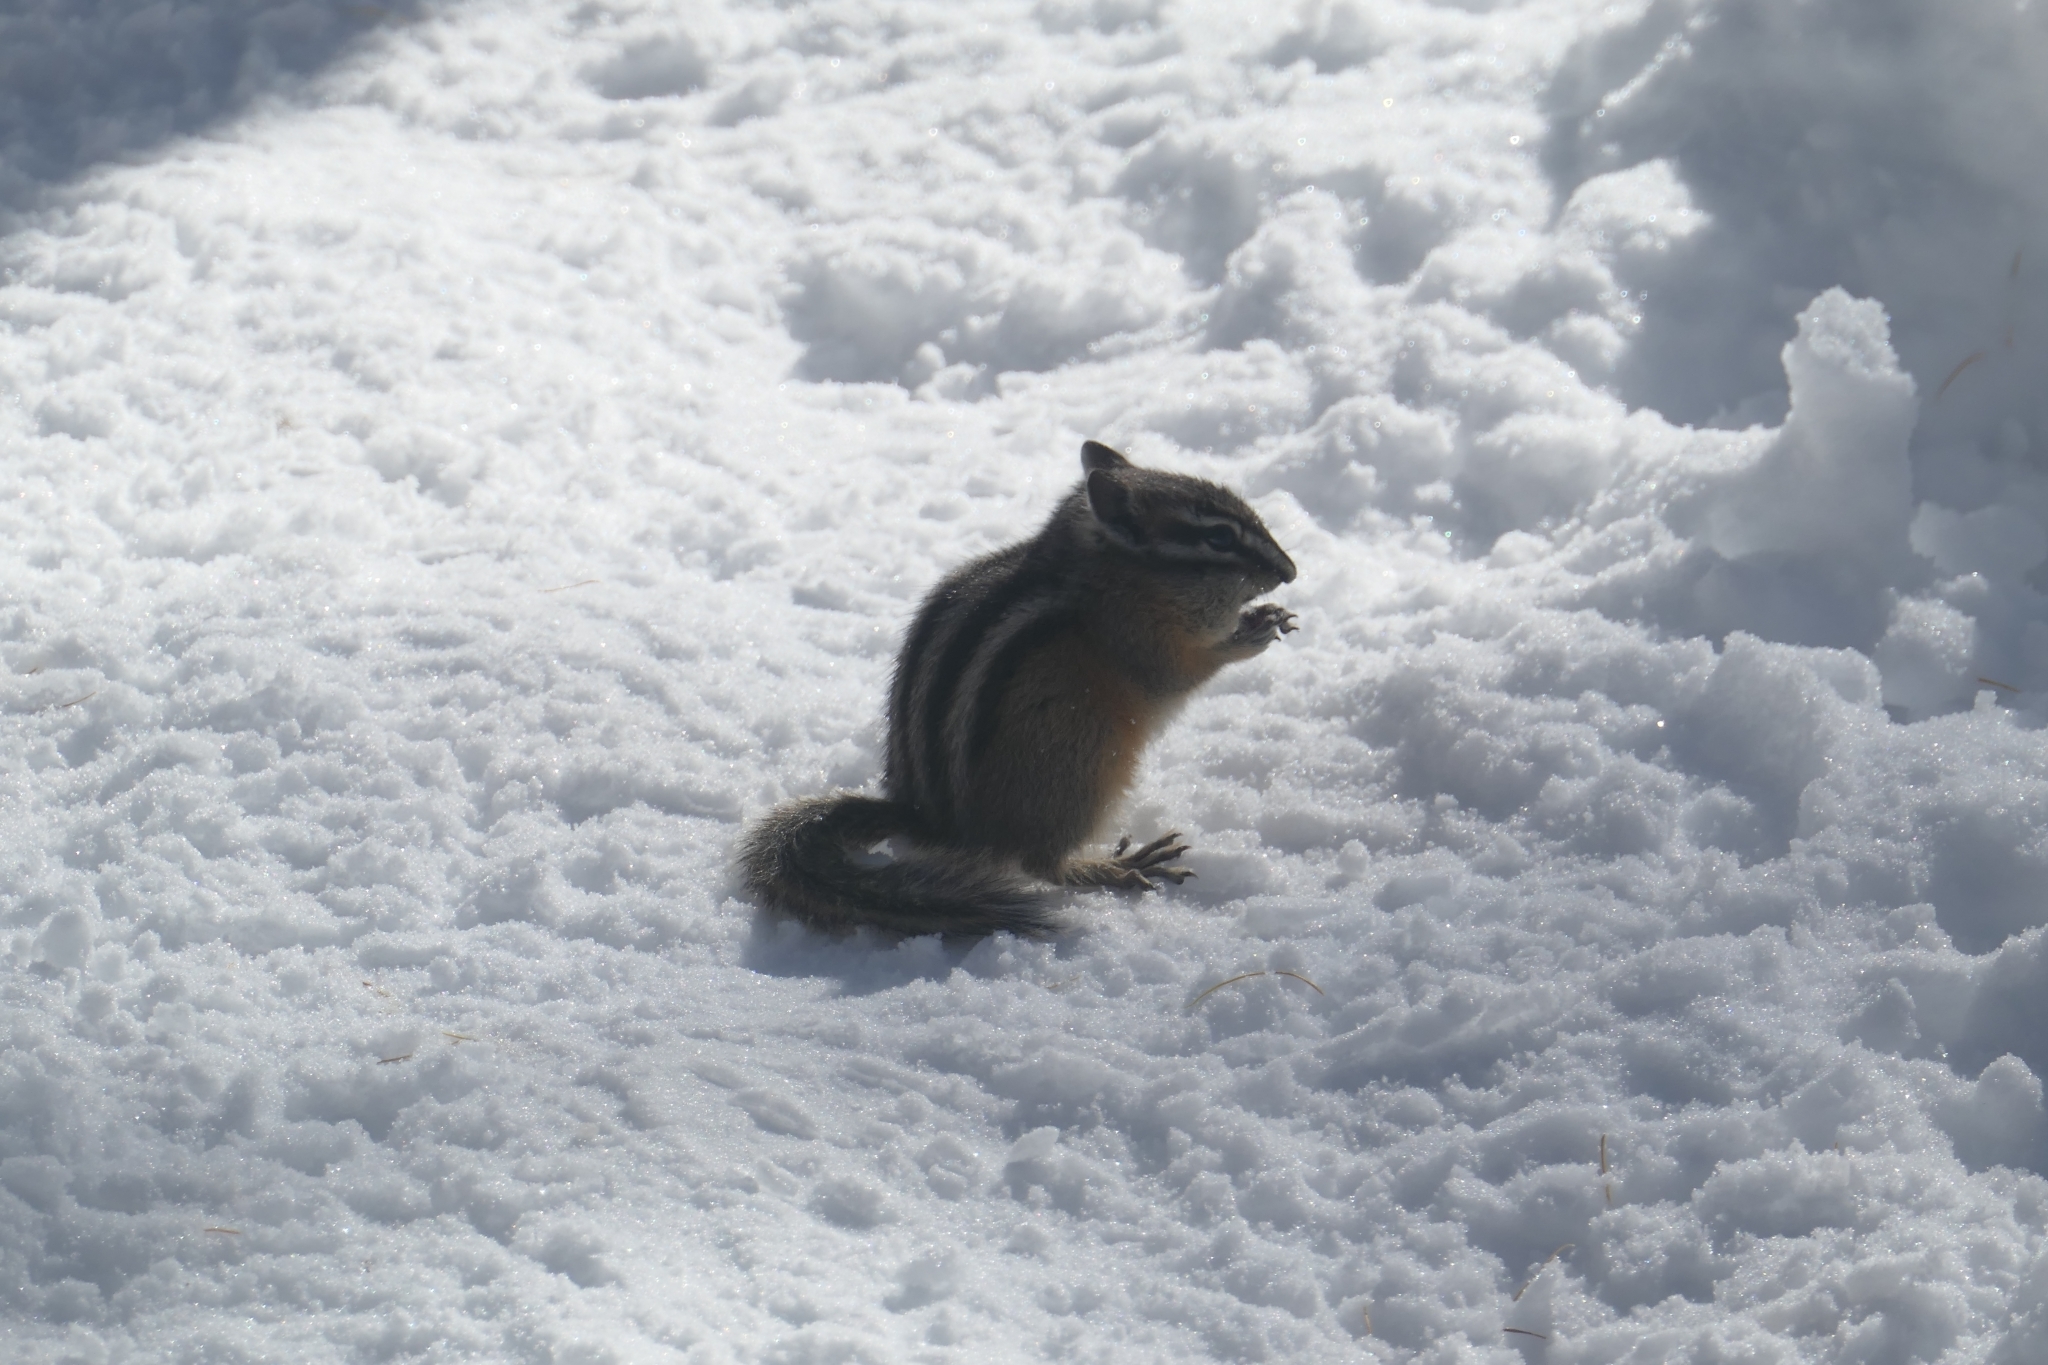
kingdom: Animalia
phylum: Chordata
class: Mammalia
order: Rodentia
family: Sciuridae
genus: Tamias
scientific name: Tamias minimus
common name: Least chipmunk
